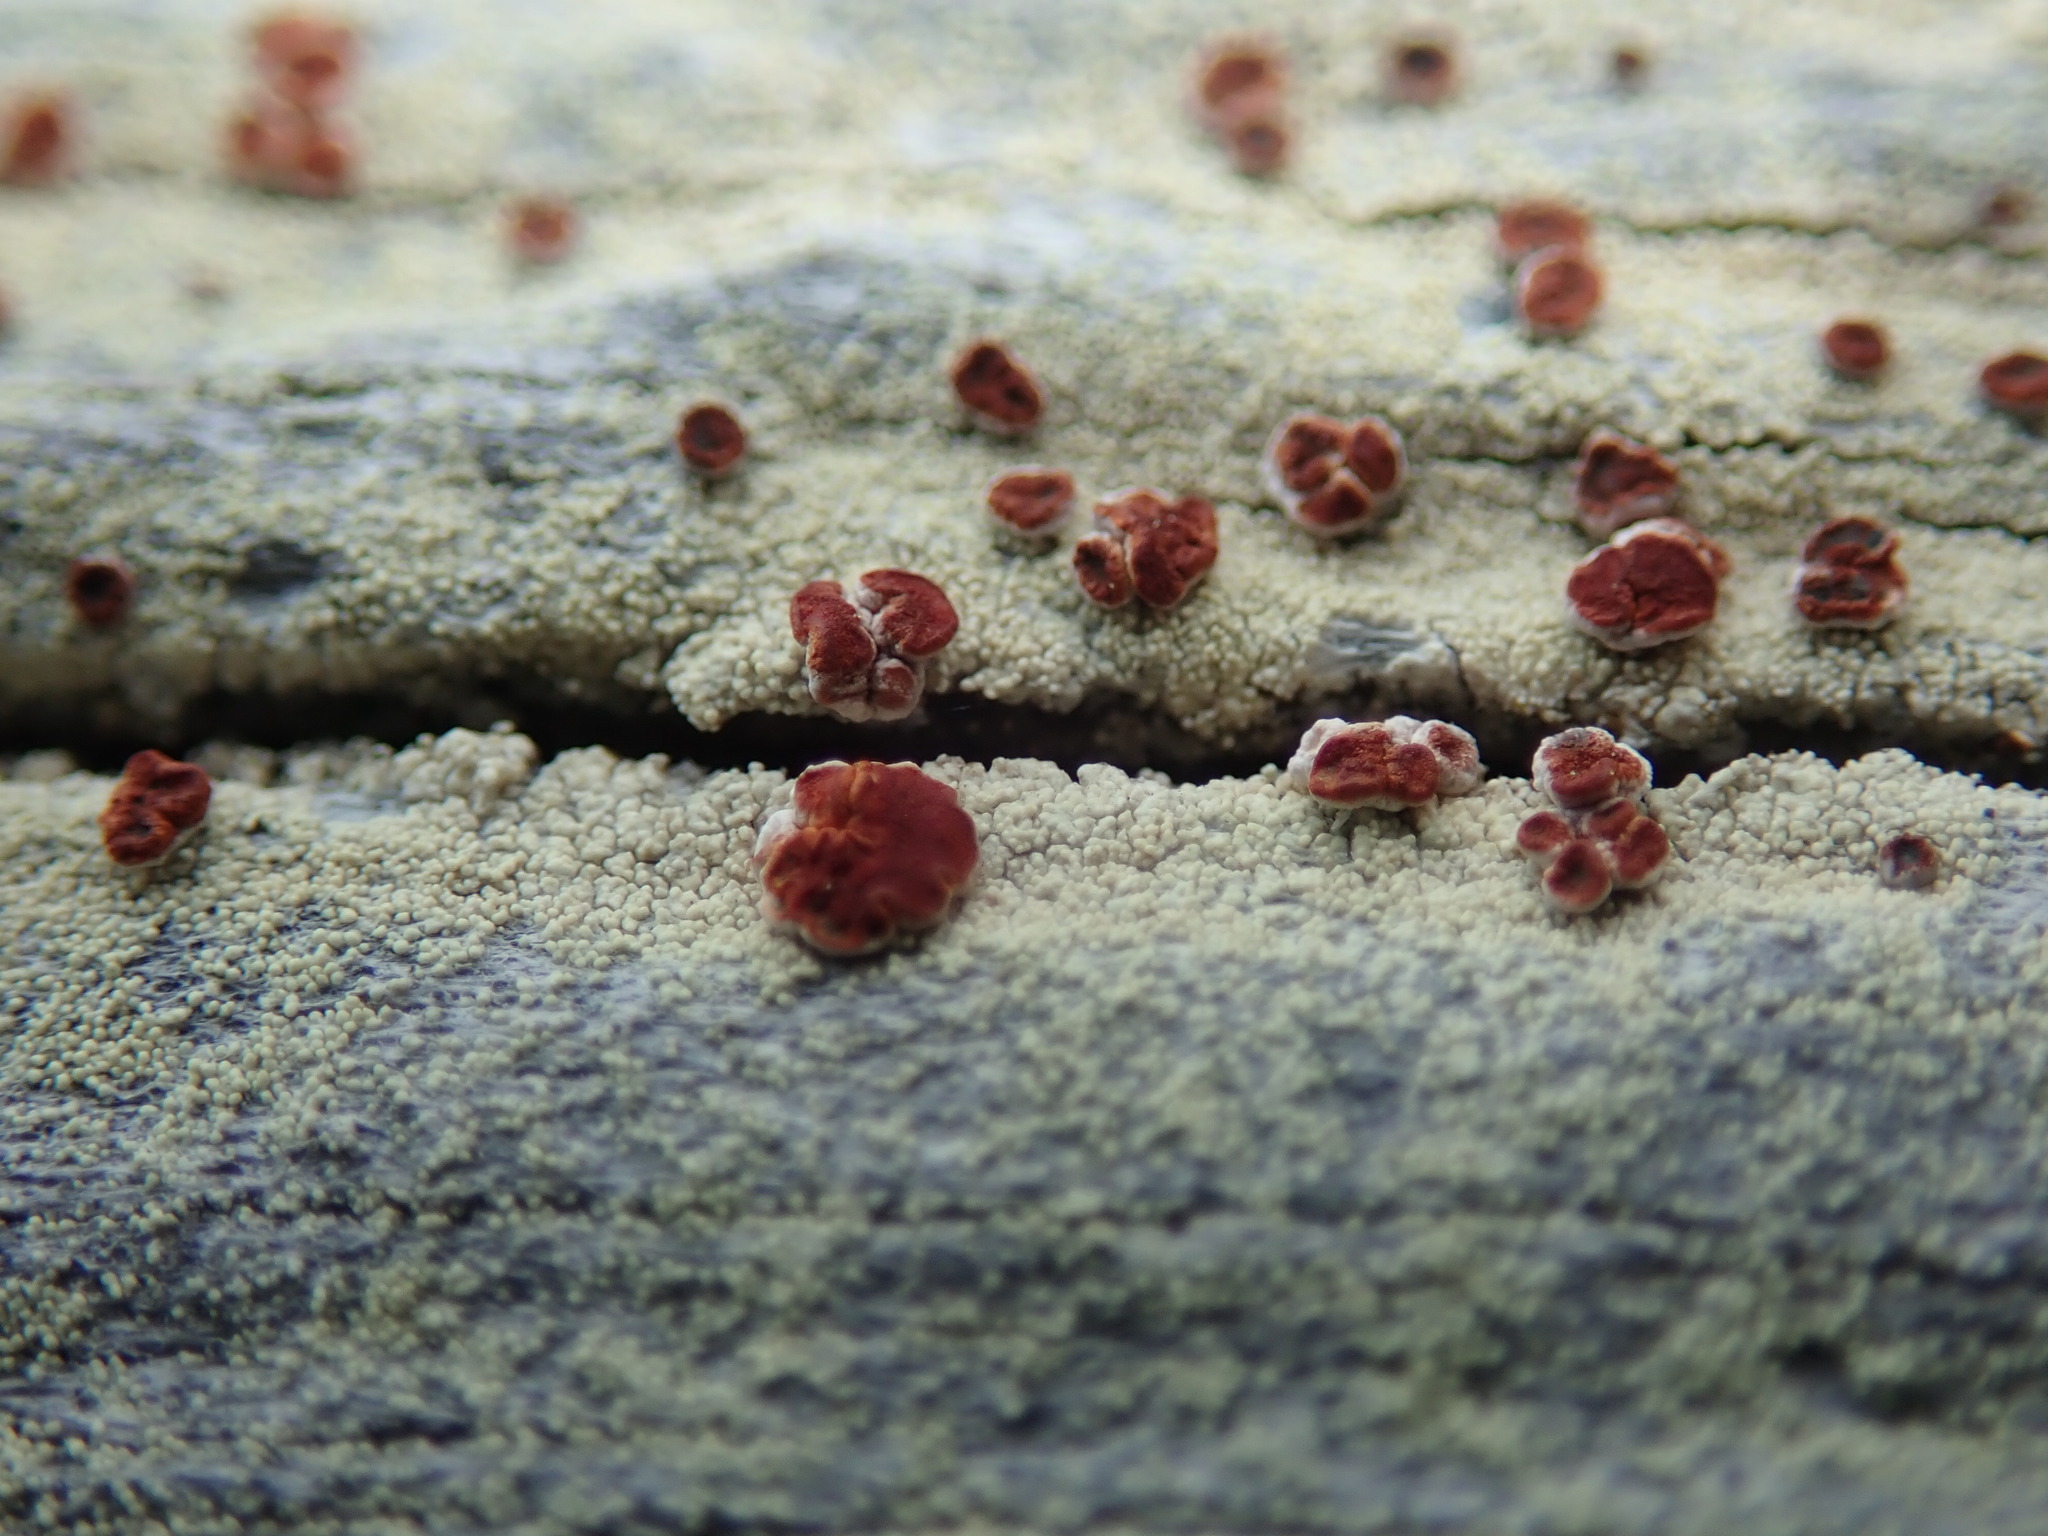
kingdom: Fungi
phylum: Ascomycota
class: Lecanoromycetes
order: Lecanorales
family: Ramalinaceae
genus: Bilimbia
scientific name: Bilimbia rubricosa
